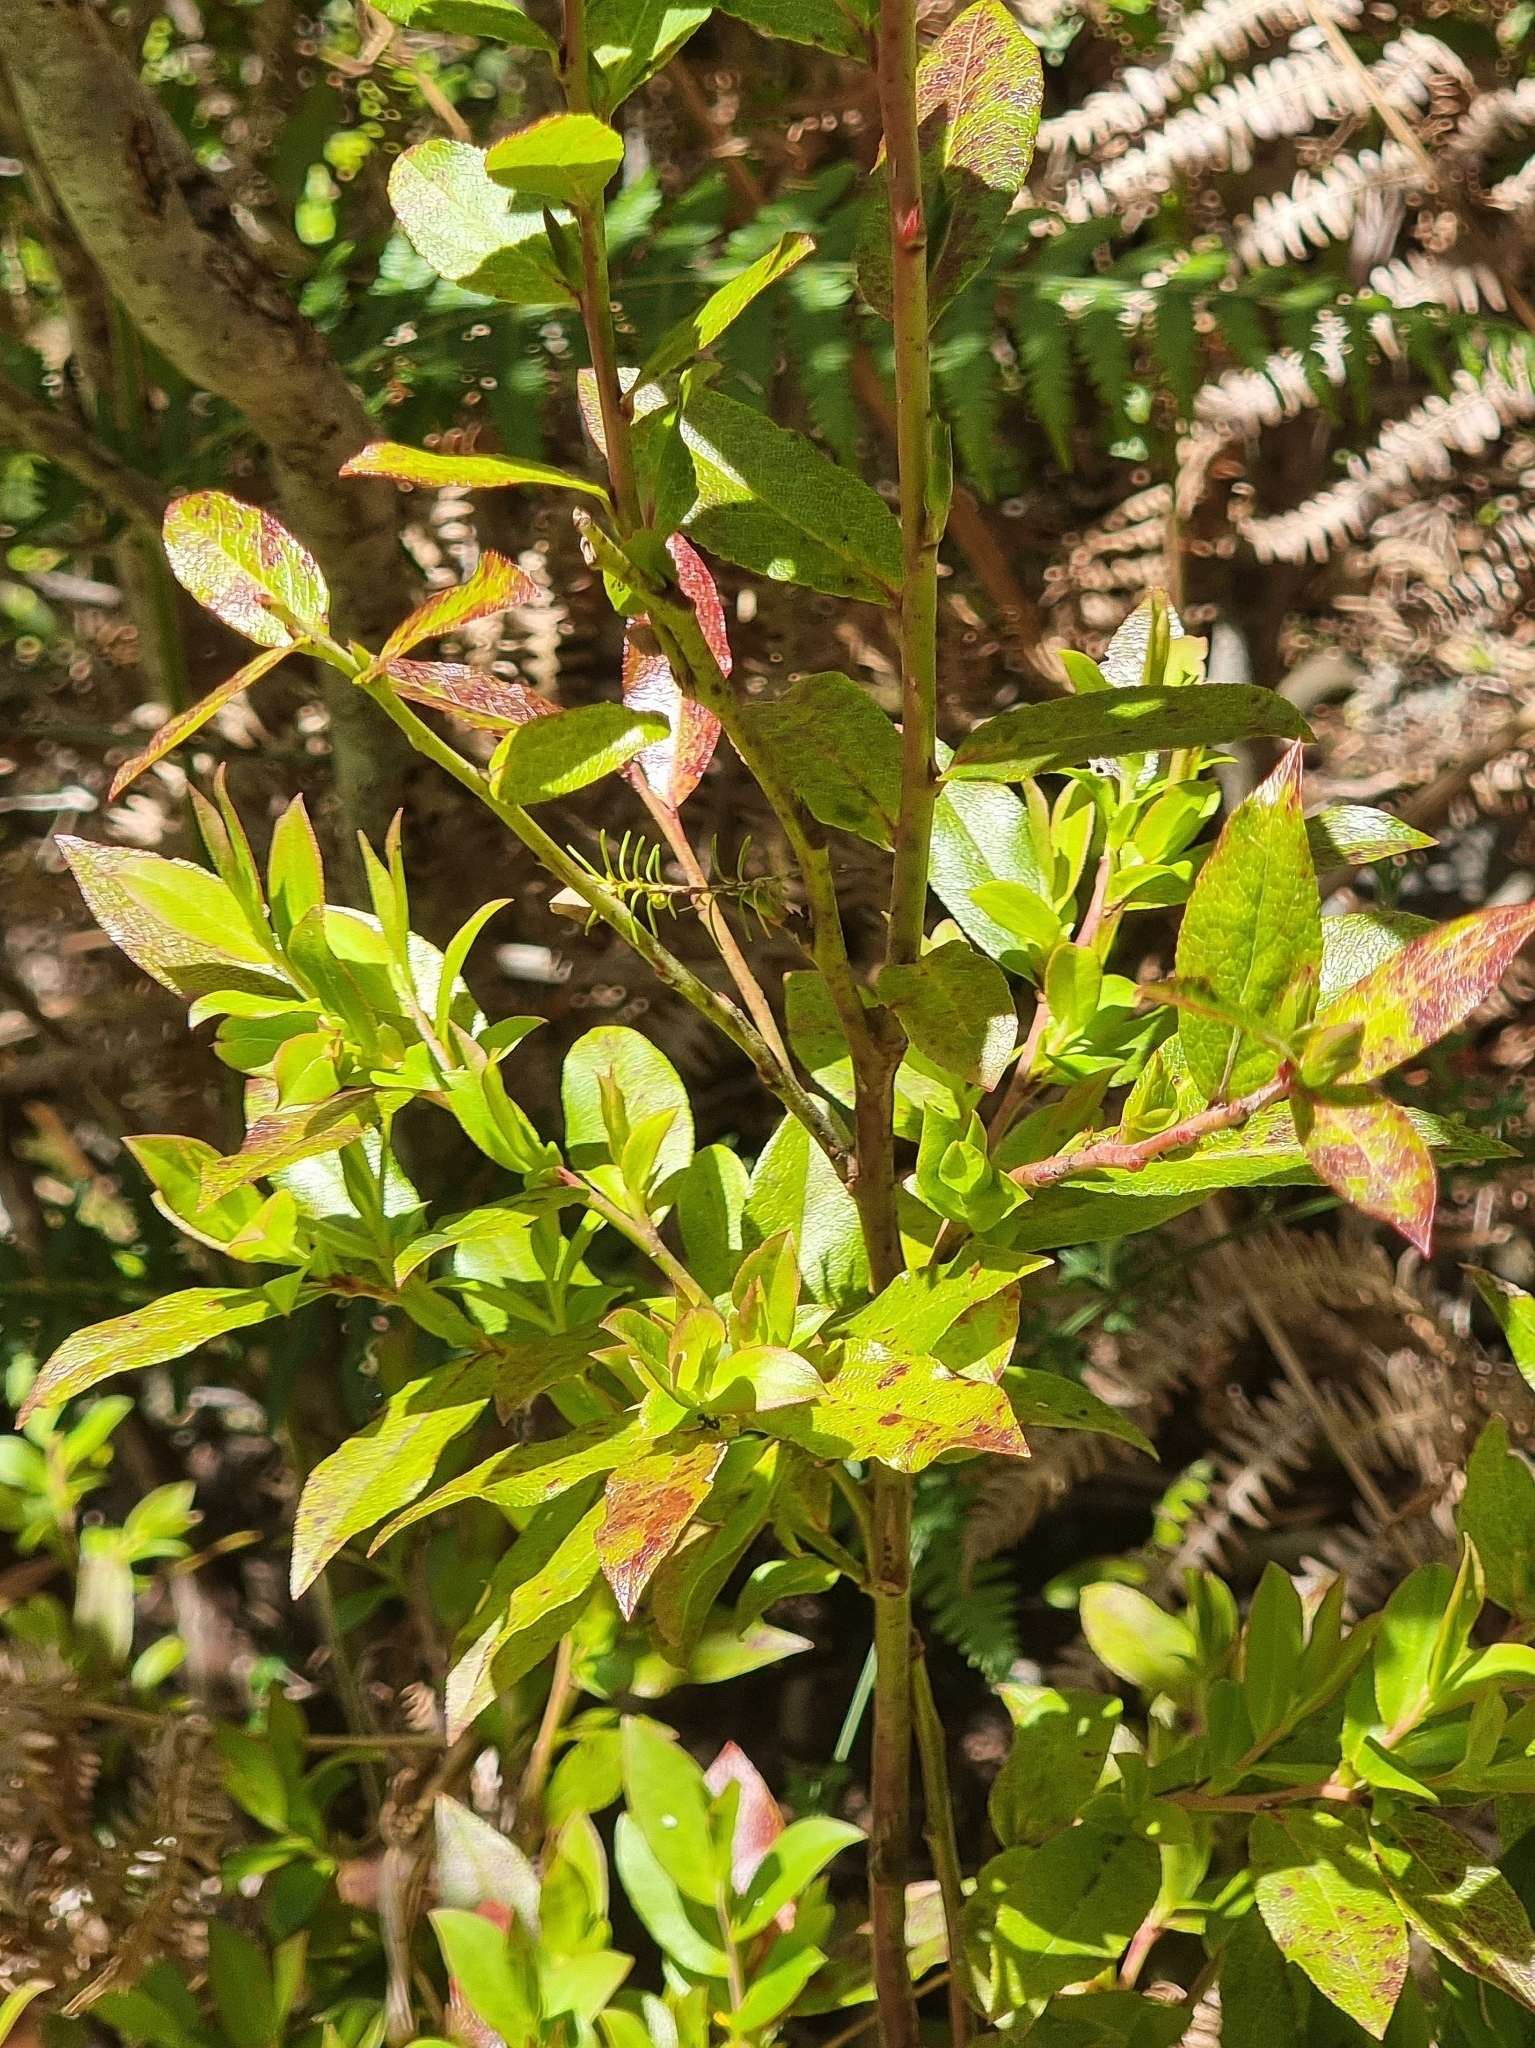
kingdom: Plantae
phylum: Tracheophyta
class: Magnoliopsida
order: Ericales
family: Ericaceae
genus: Vaccinium
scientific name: Vaccinium padifolium
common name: Madeiran blueberry
